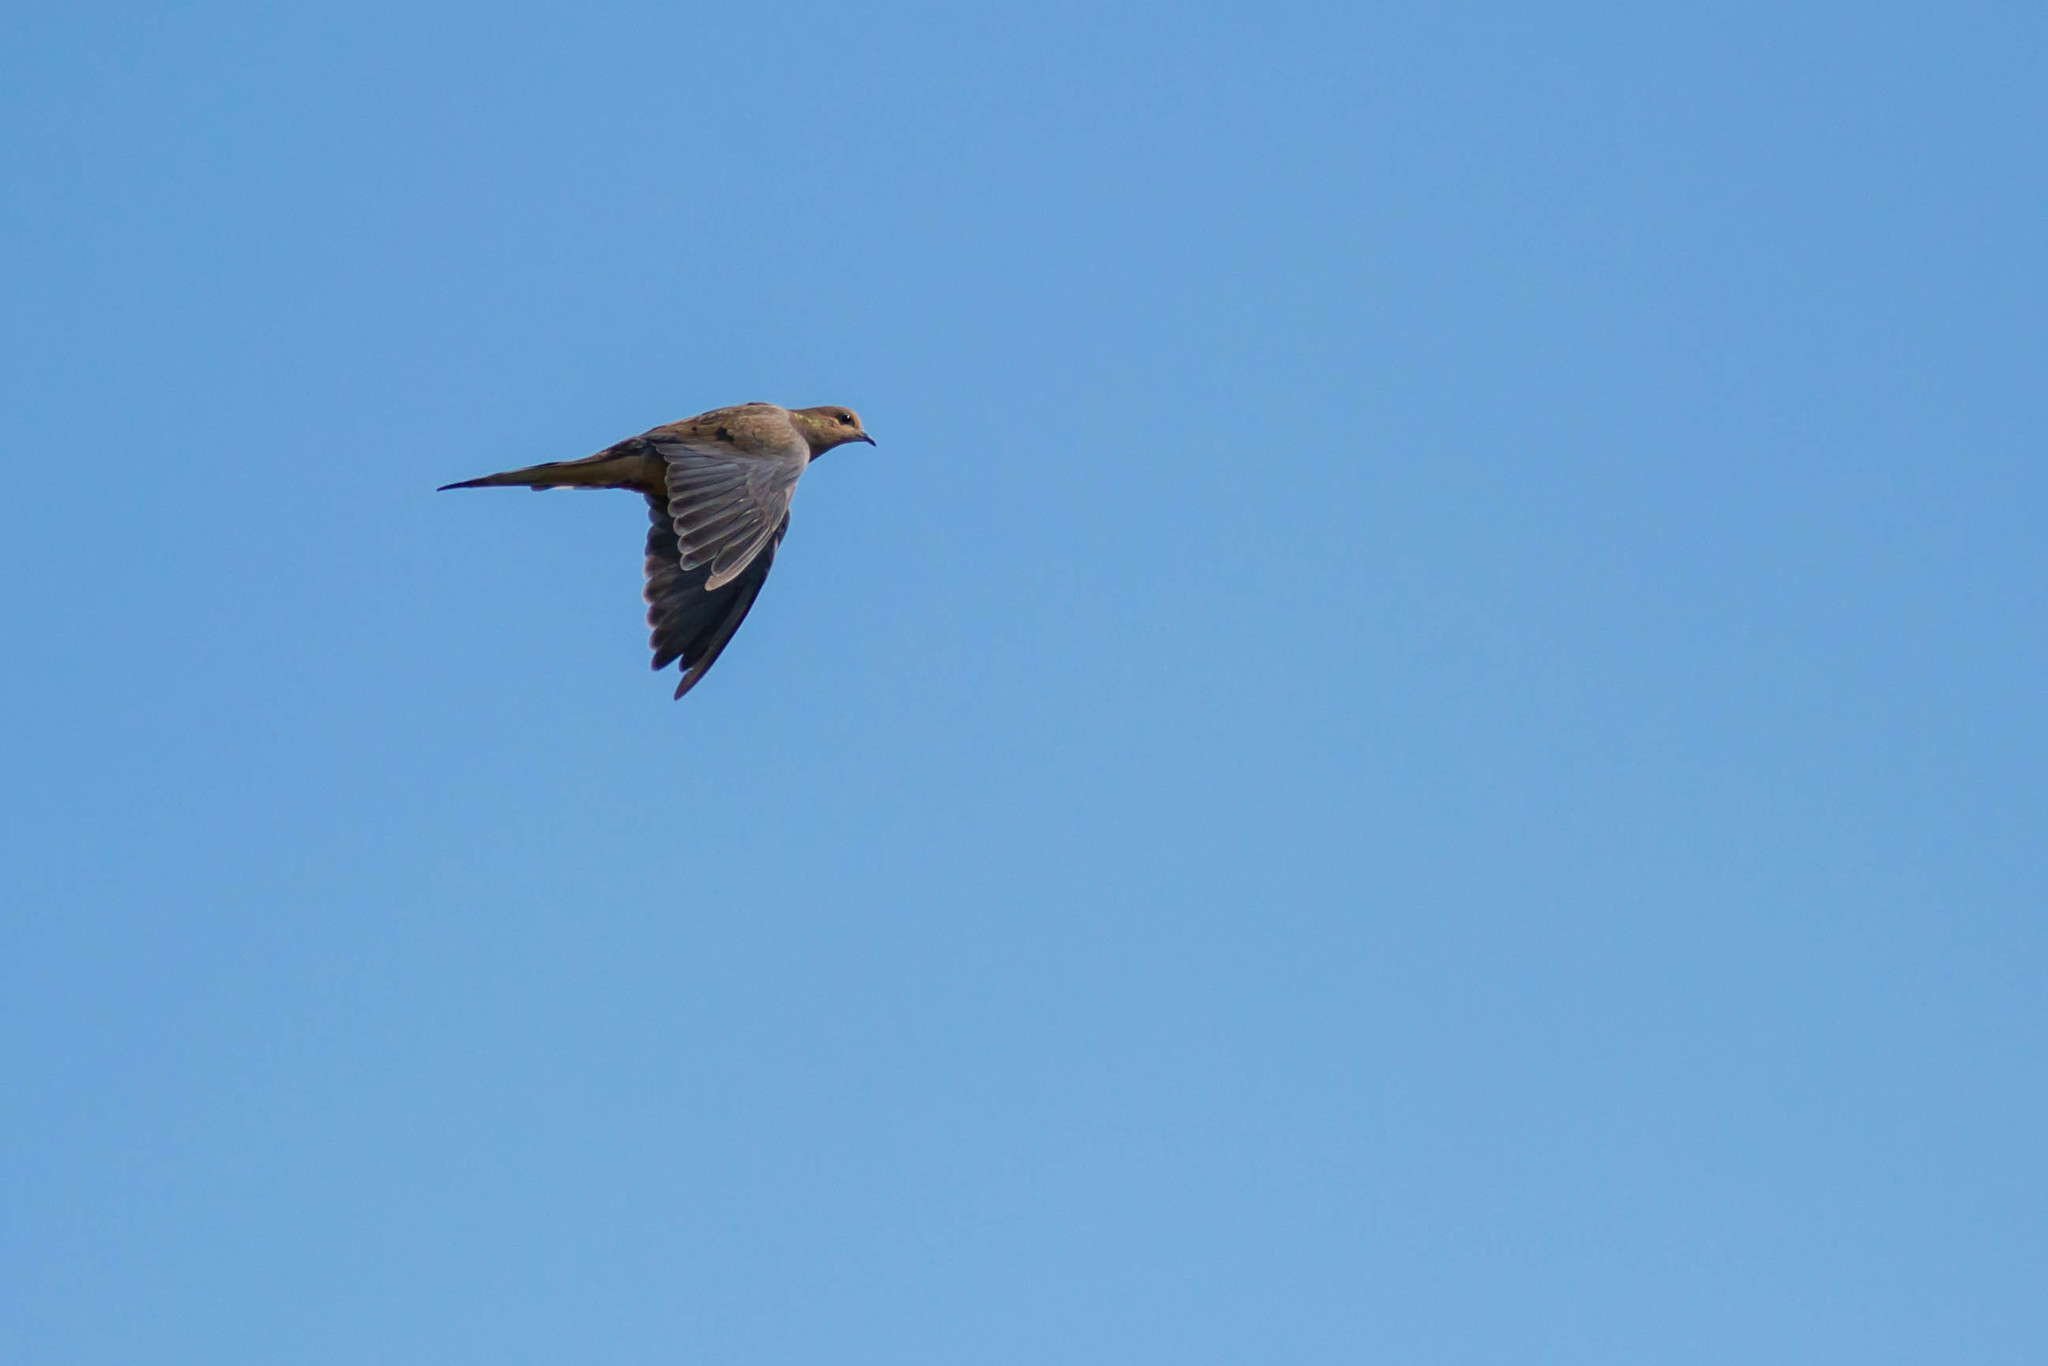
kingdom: Animalia
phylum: Chordata
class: Aves
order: Columbiformes
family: Columbidae
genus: Zenaida
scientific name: Zenaida macroura
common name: Mourning dove
